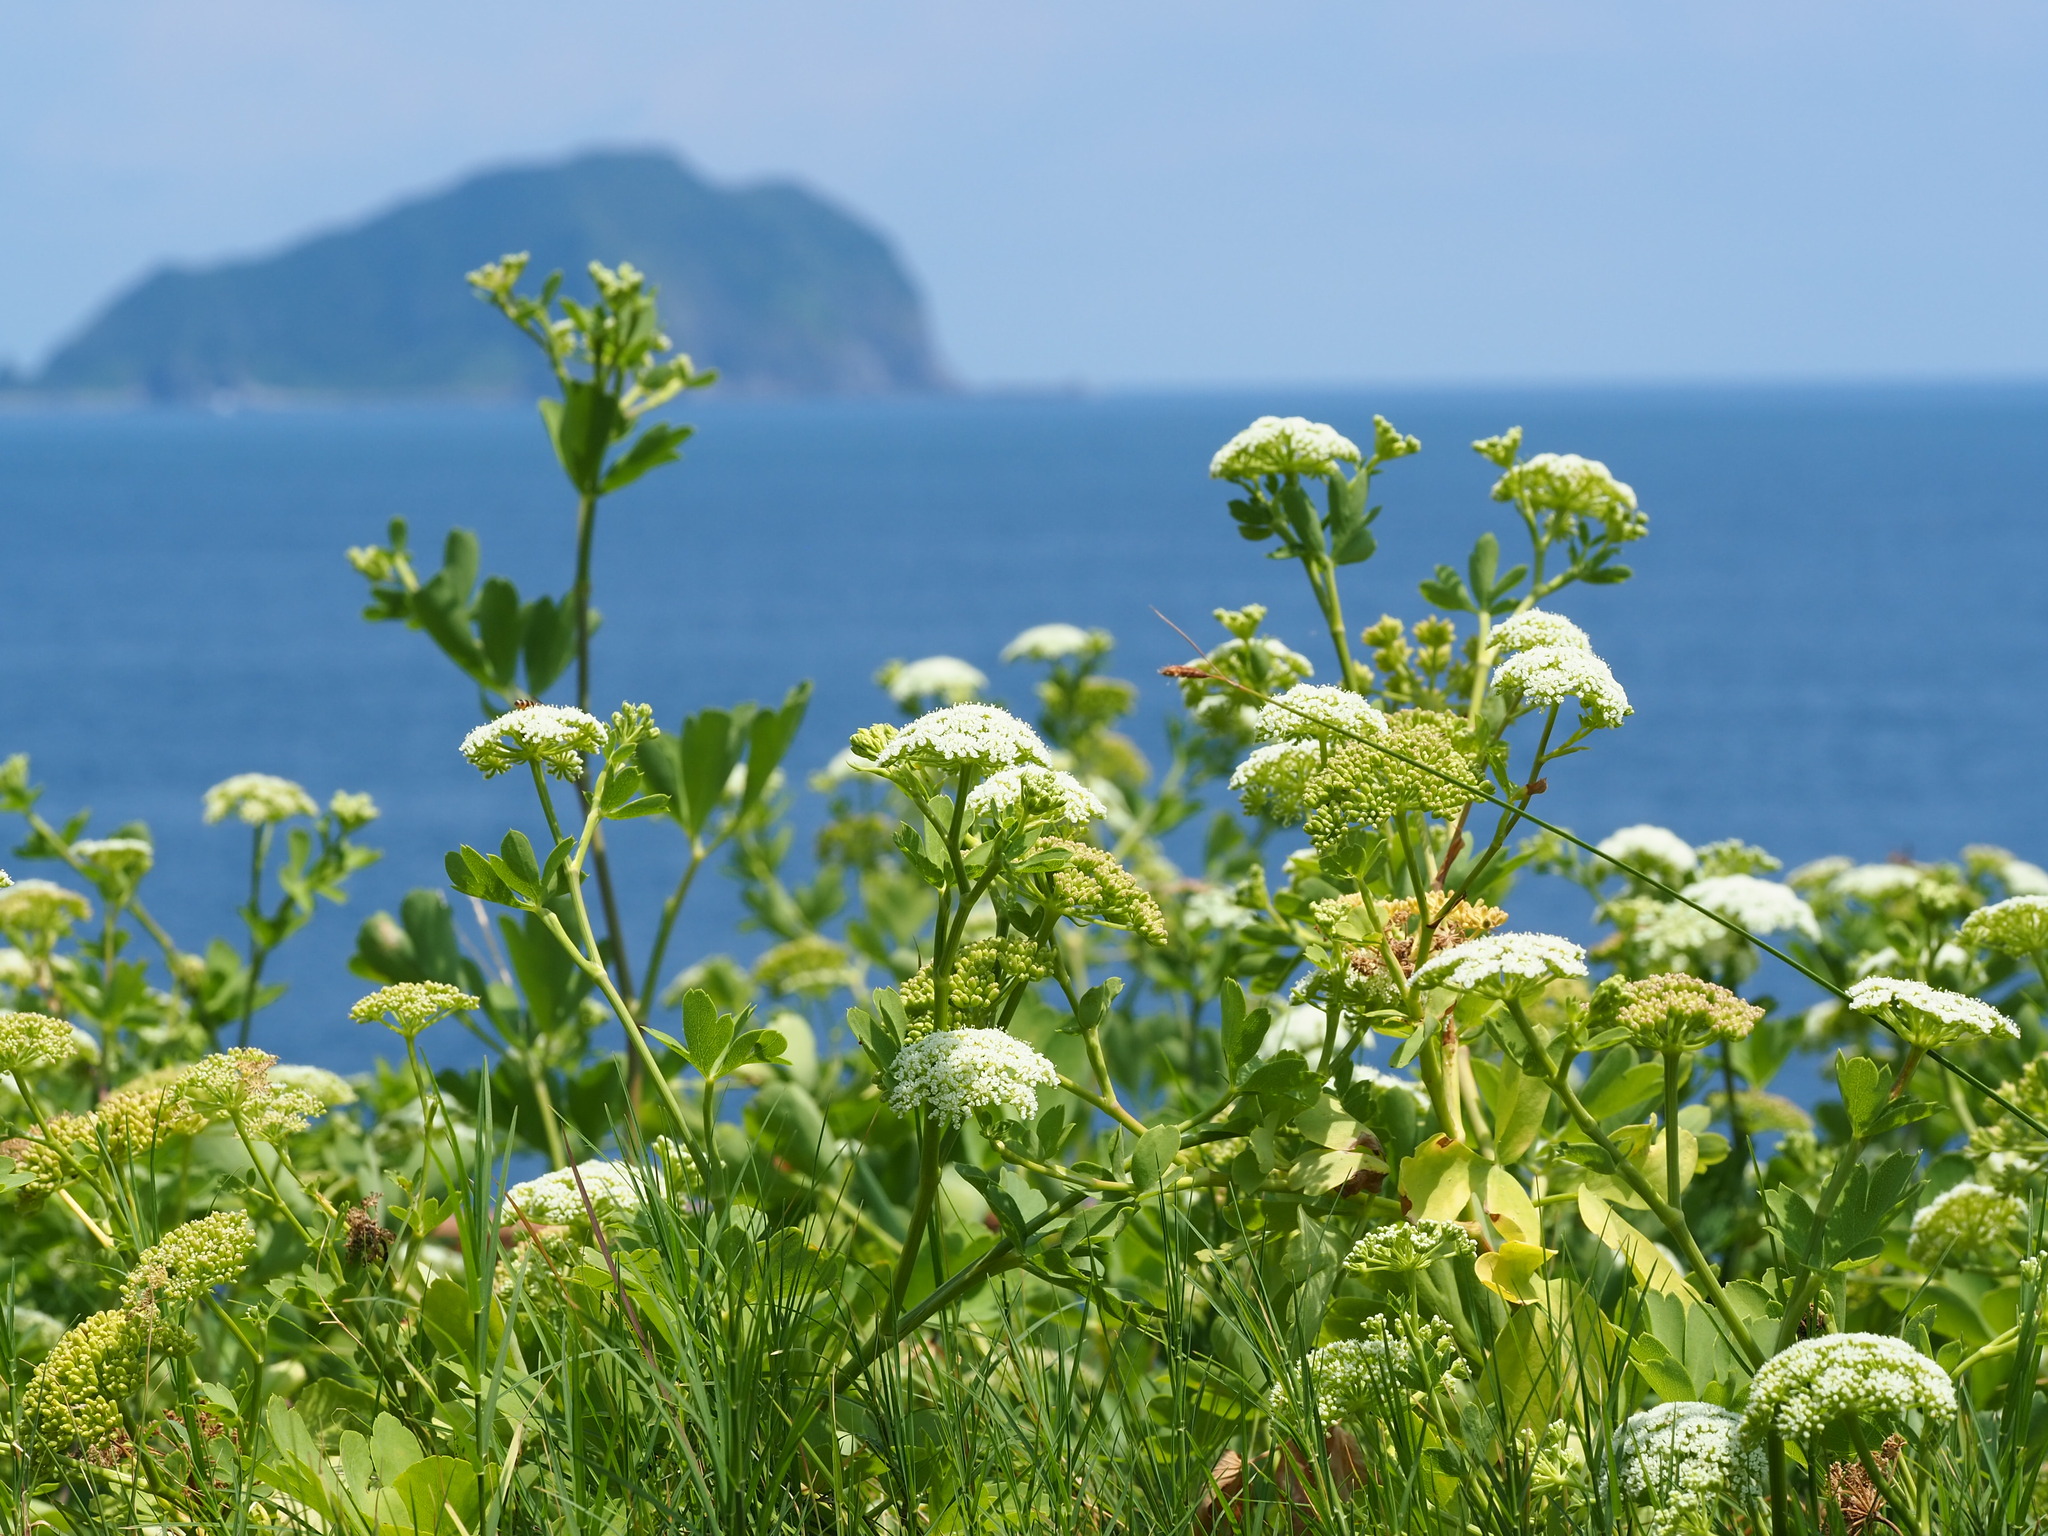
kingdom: Plantae
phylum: Tracheophyta
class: Magnoliopsida
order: Apiales
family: Apiaceae
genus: Peucedanum
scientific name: Peucedanum japonicum
